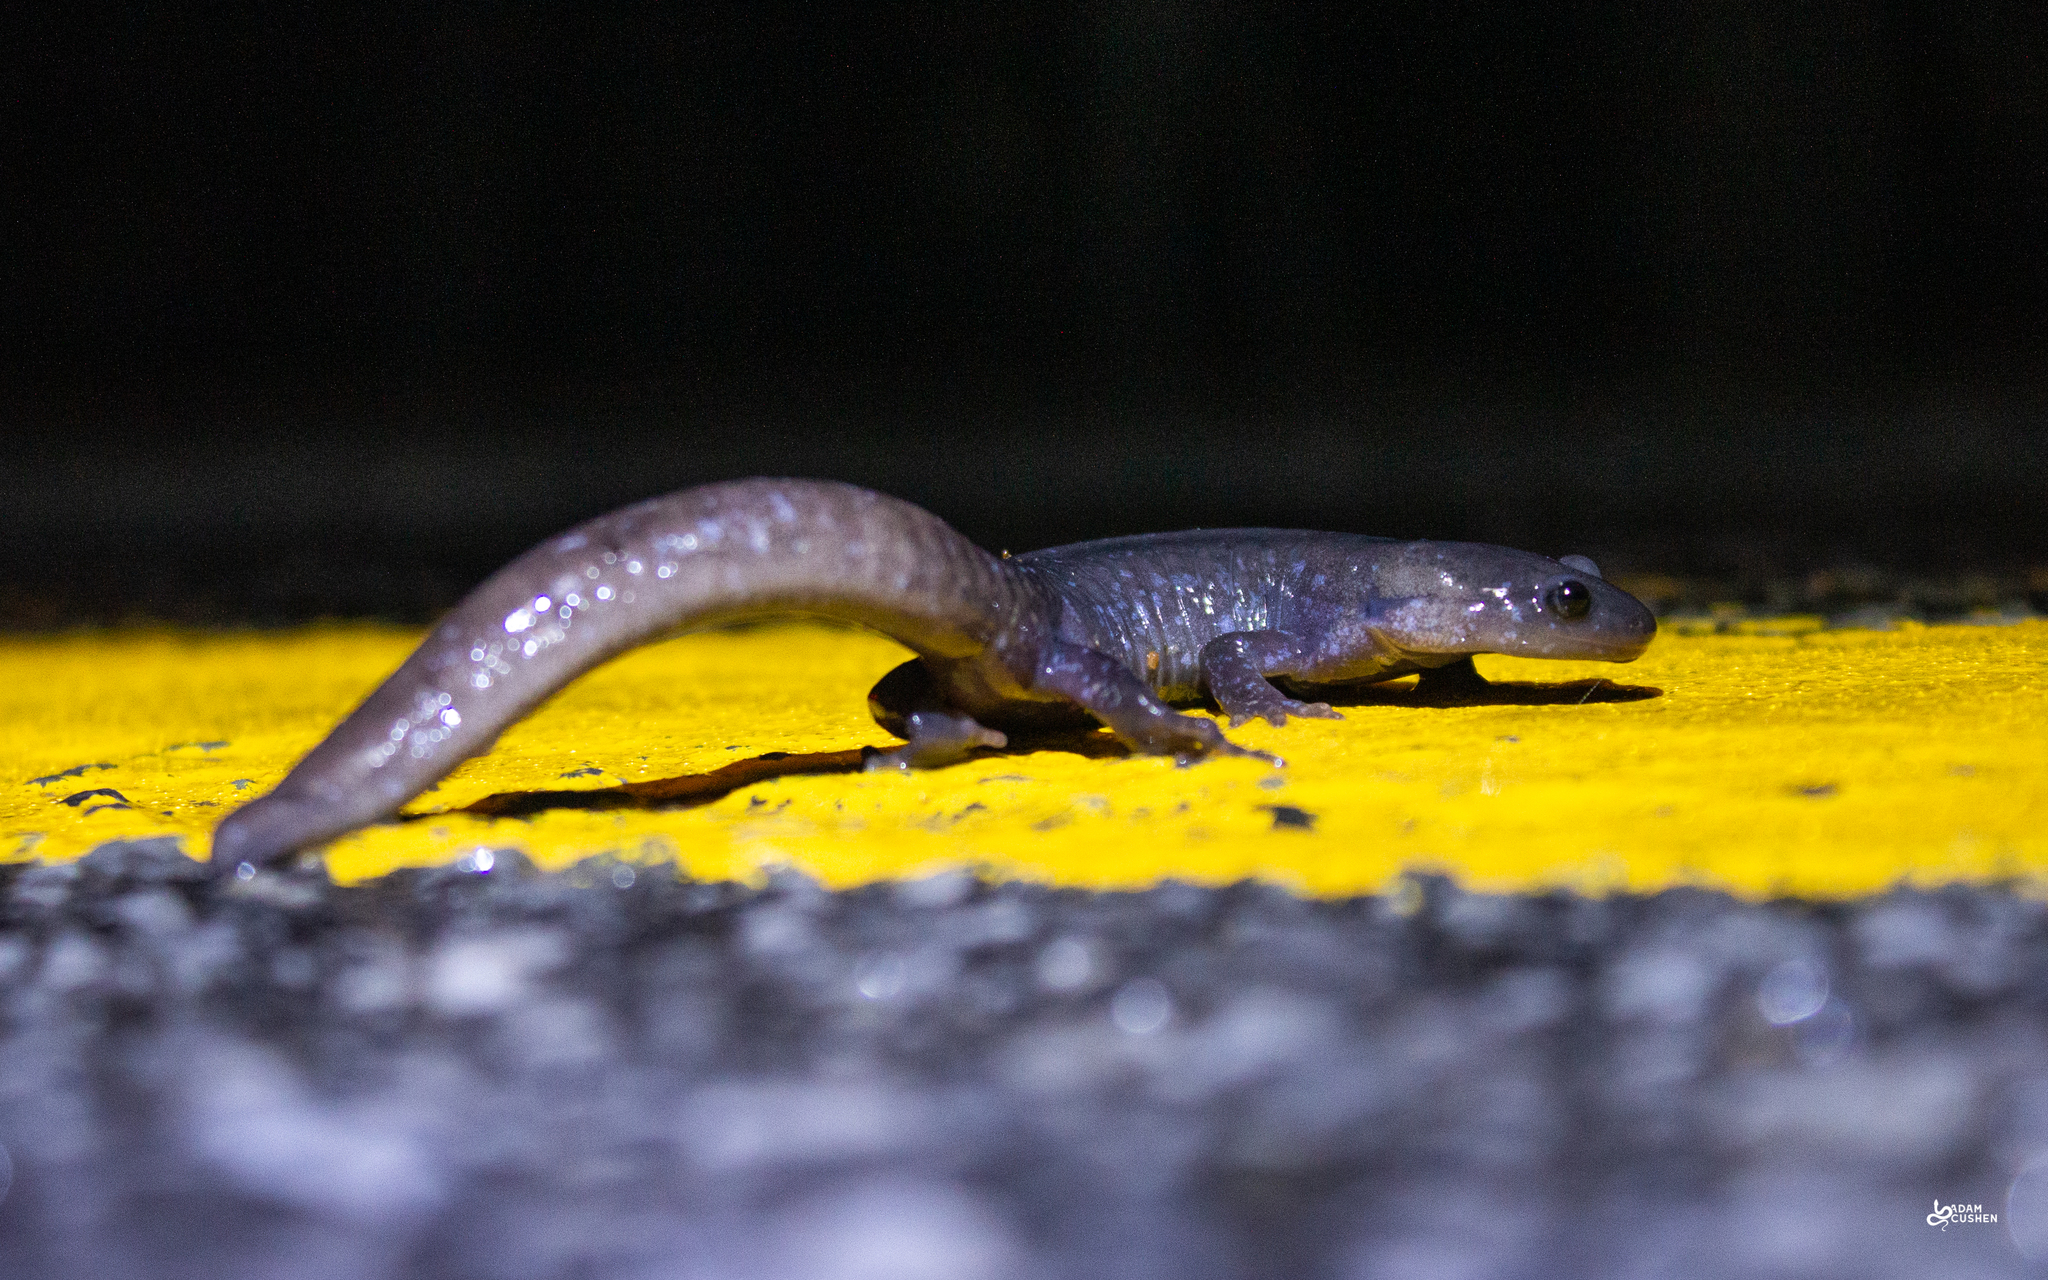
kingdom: Animalia
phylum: Chordata
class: Amphibia
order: Caudata
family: Ambystomatidae
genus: Ambystoma
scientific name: Ambystoma laterale
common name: Blue-spotted salamander
